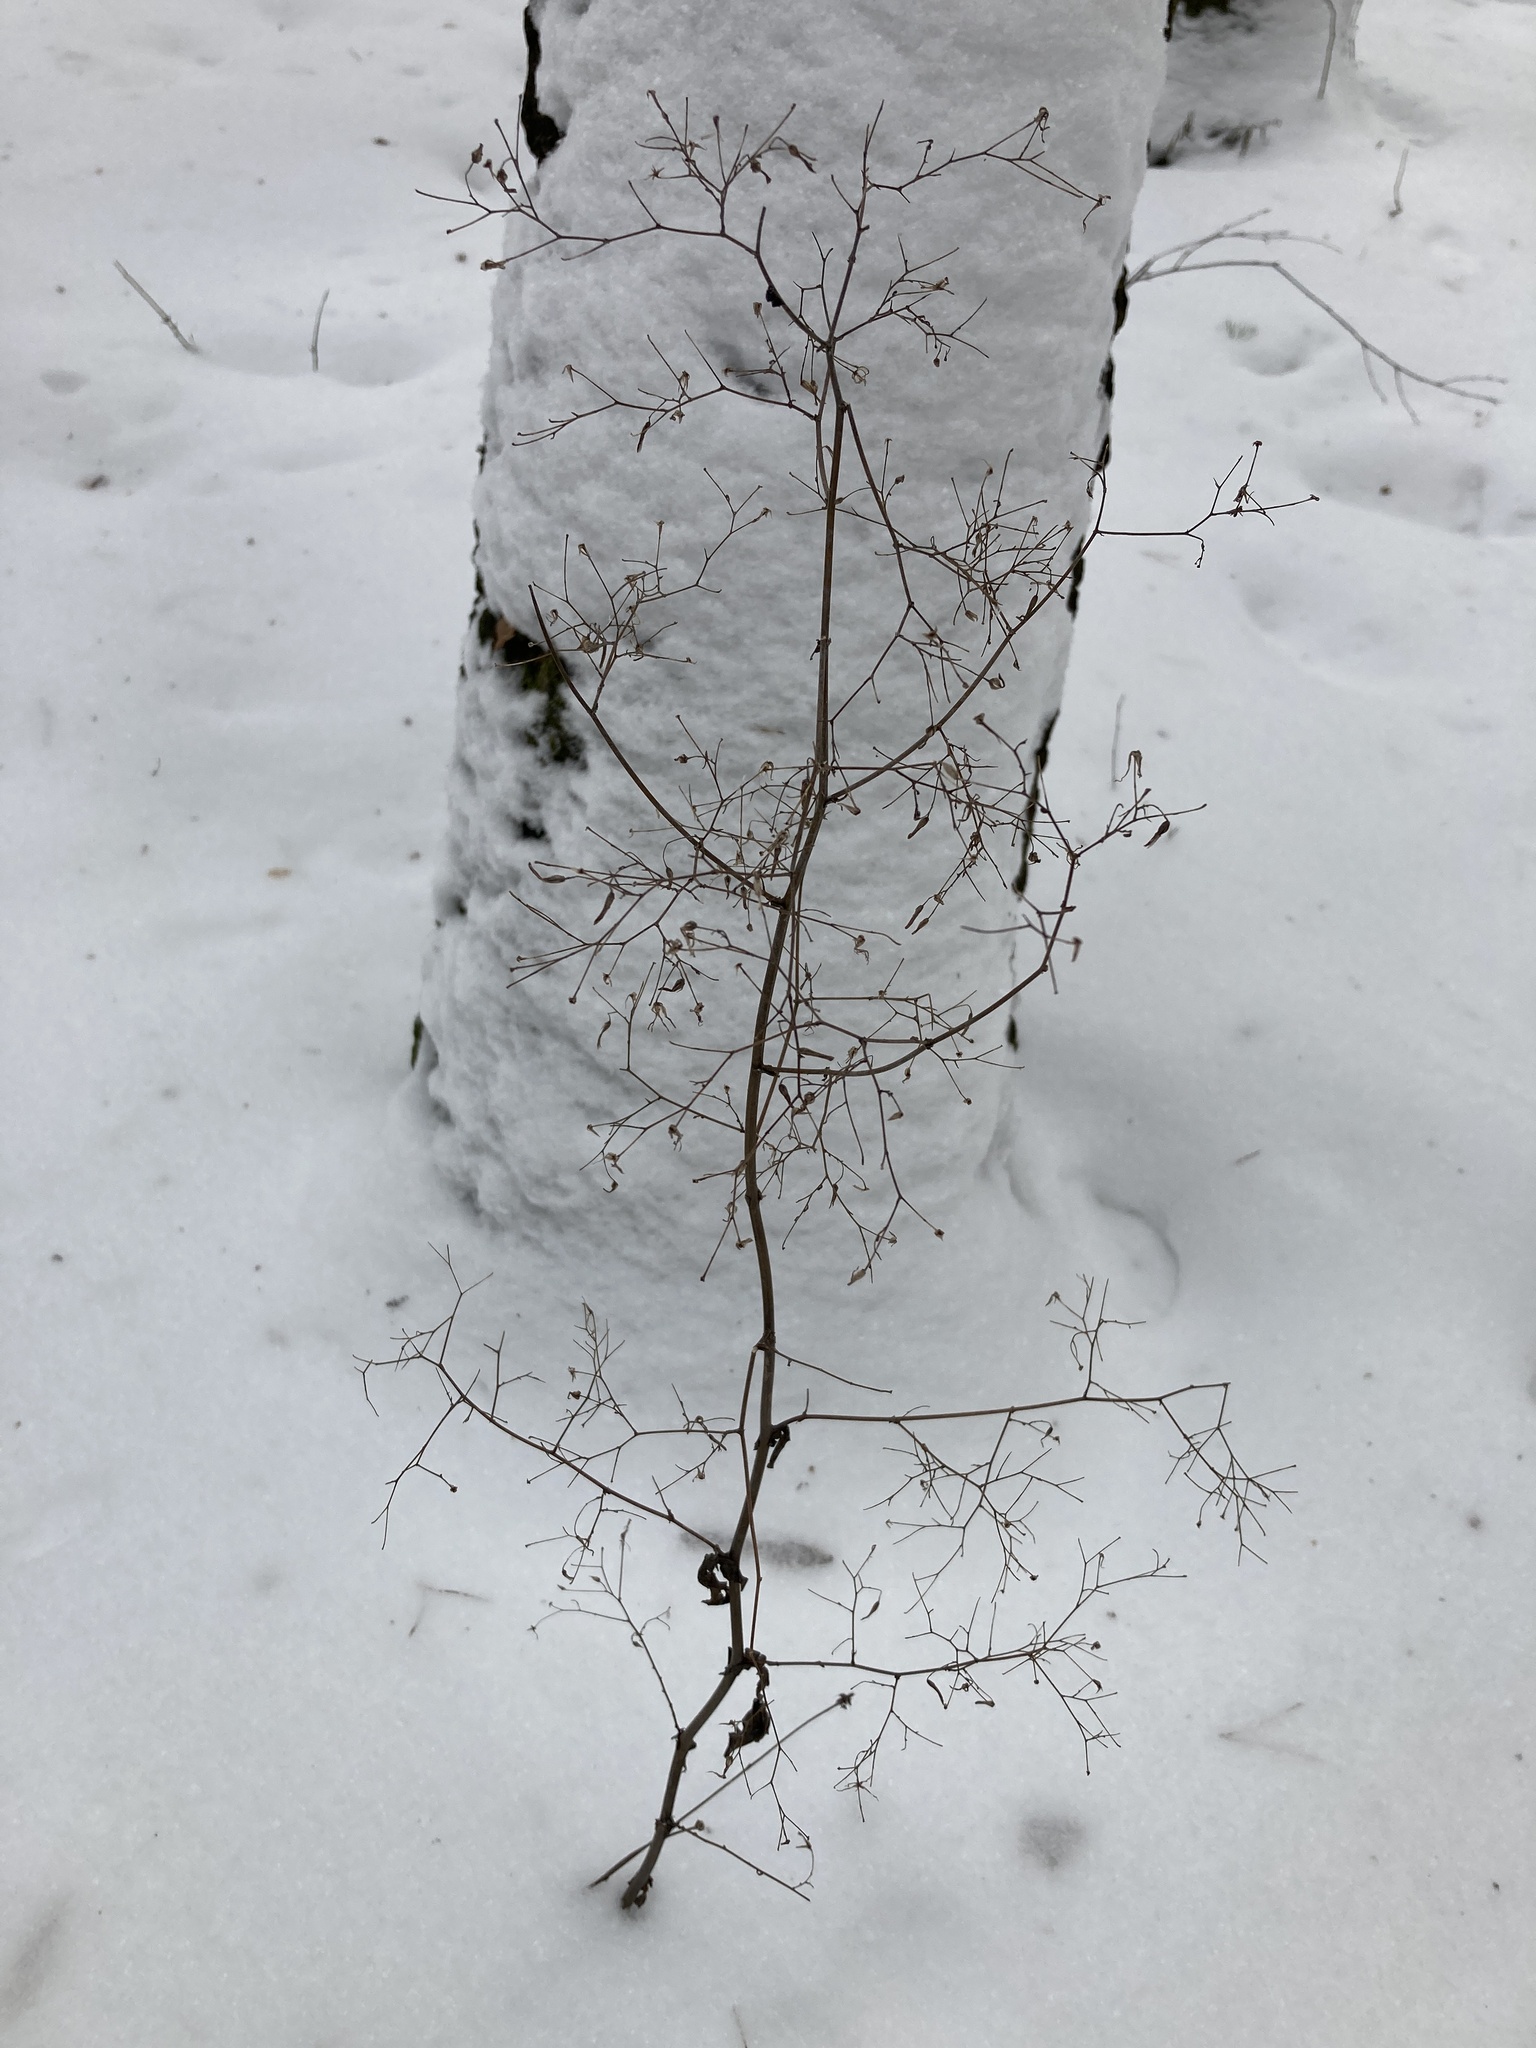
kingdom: Plantae
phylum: Tracheophyta
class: Magnoliopsida
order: Asterales
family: Asteraceae
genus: Mycelis
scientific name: Mycelis muralis
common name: Wall lettuce
